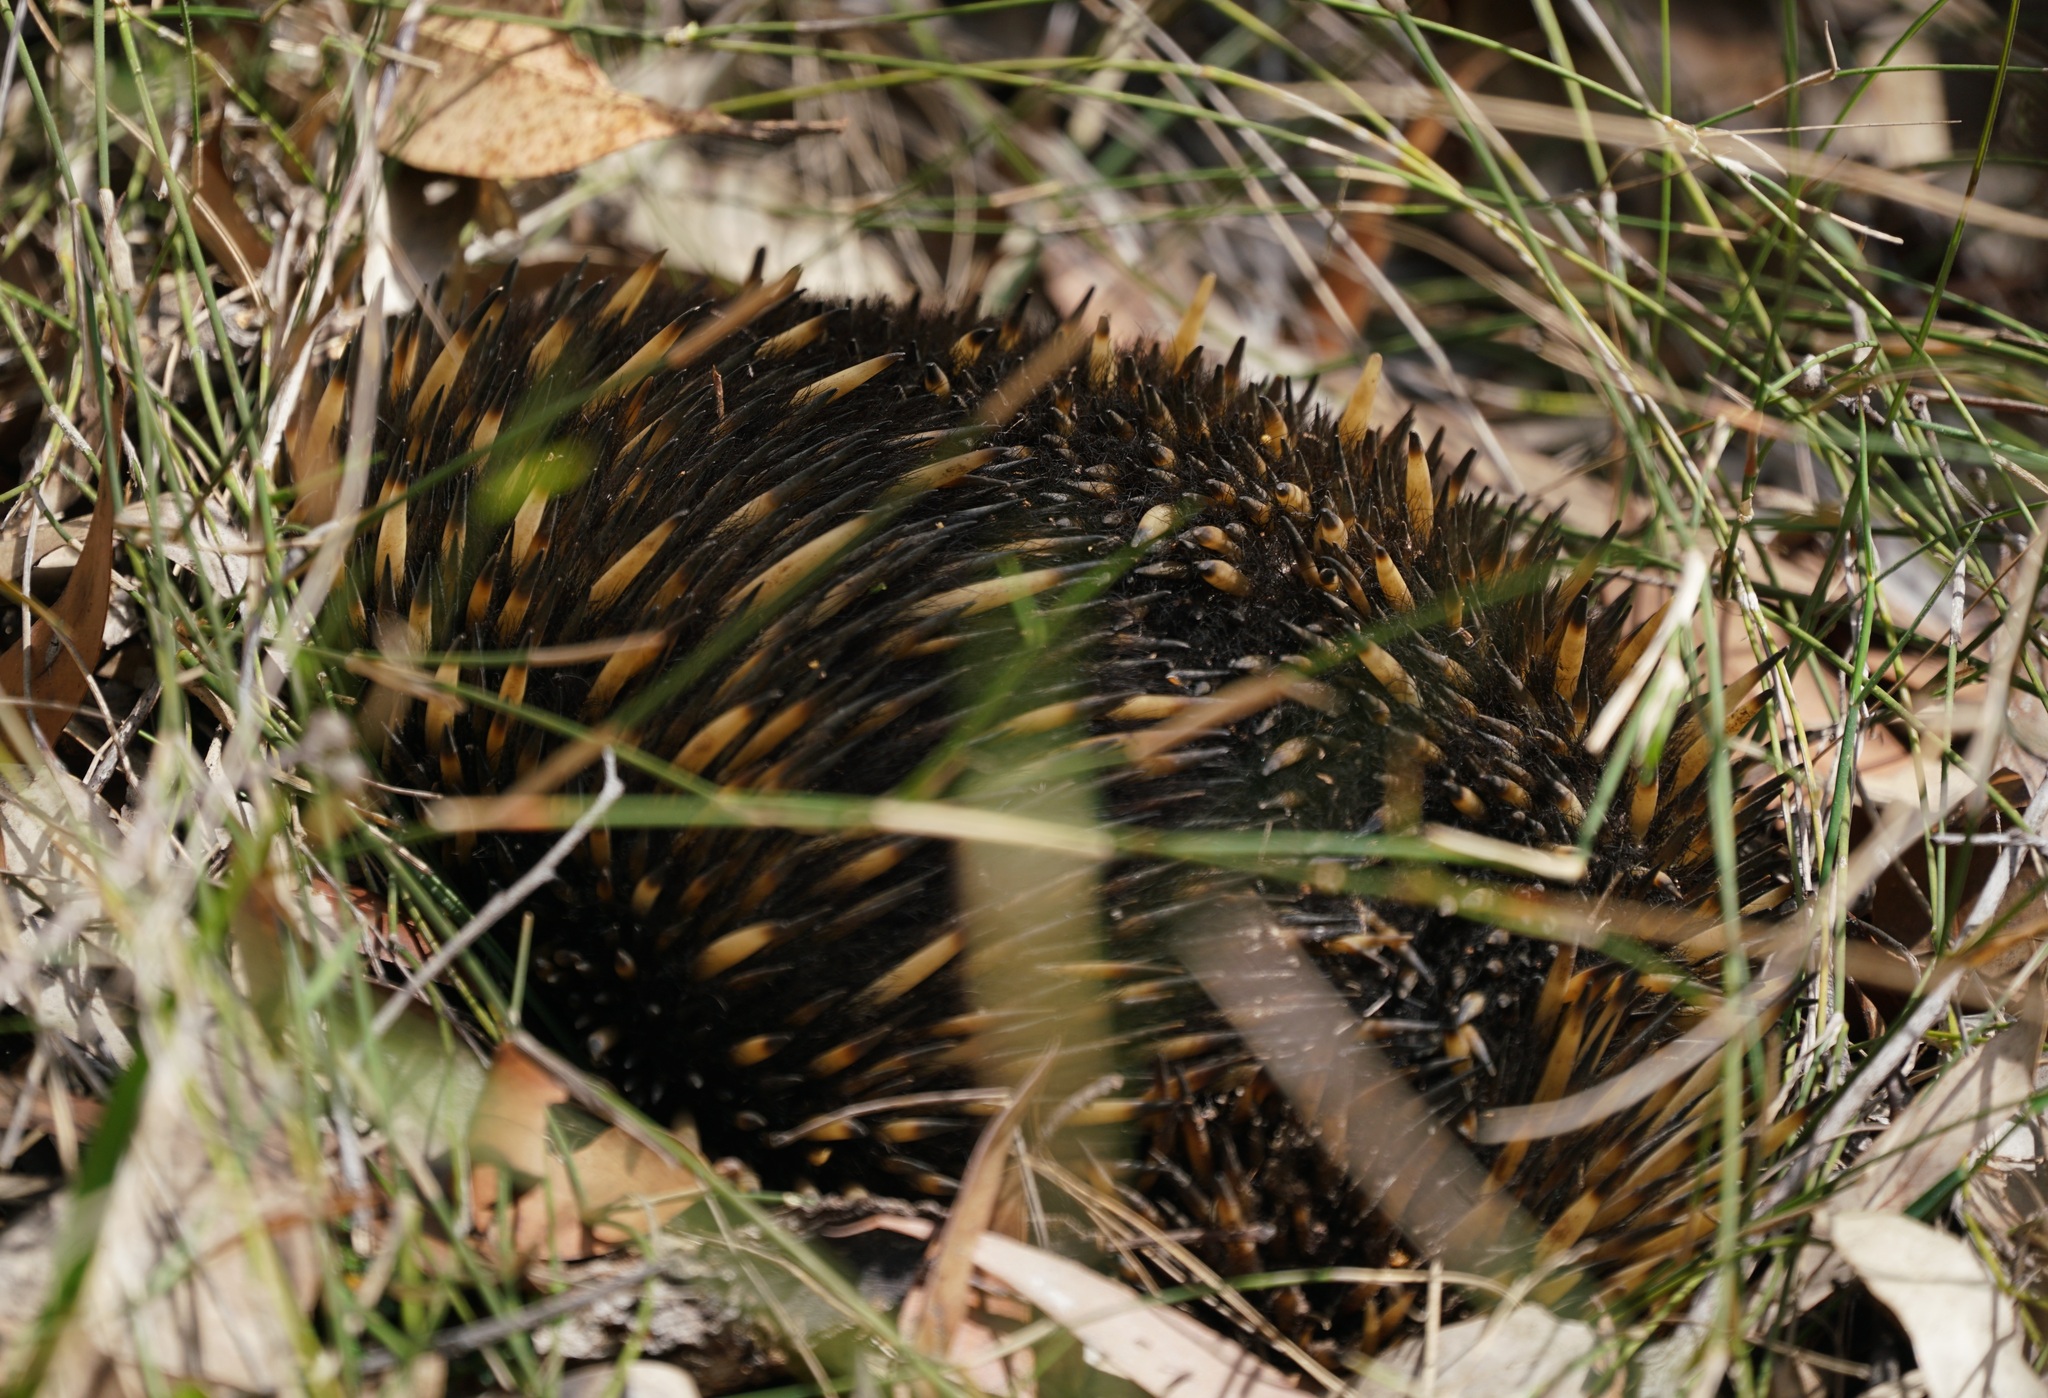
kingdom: Animalia
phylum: Chordata
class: Mammalia
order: Monotremata
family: Tachyglossidae
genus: Tachyglossus
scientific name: Tachyglossus aculeatus
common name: Short-beaked echidna
